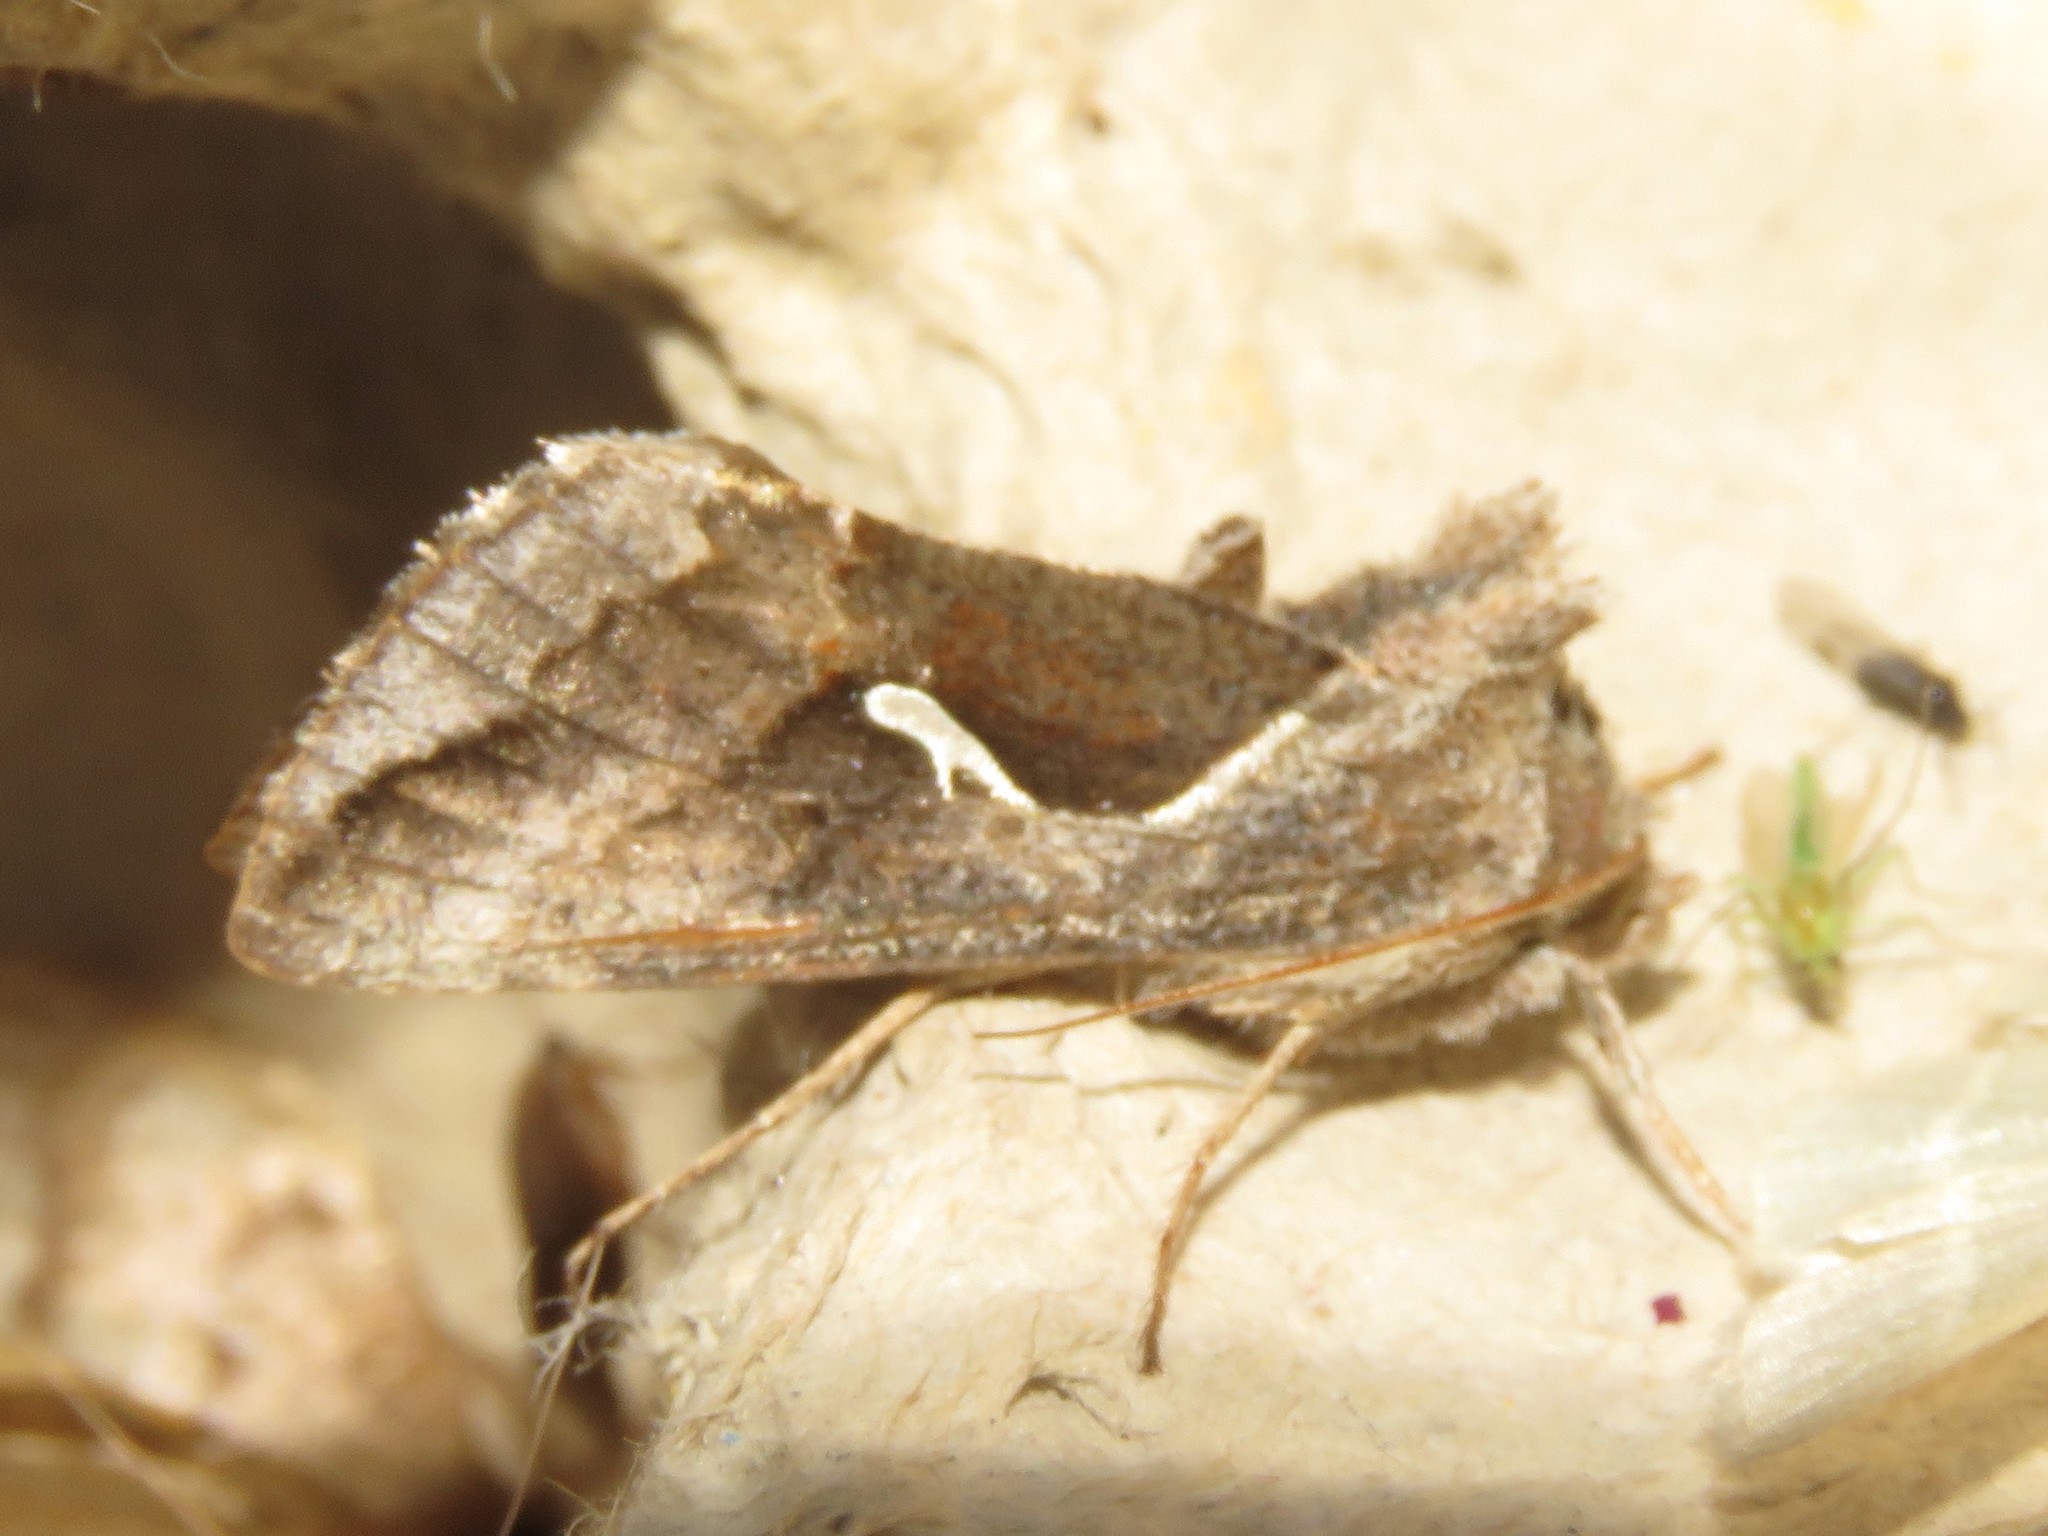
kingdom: Animalia
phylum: Arthropoda
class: Insecta
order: Lepidoptera
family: Noctuidae
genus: Anagrapha
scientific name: Anagrapha falcifera
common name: Celery looper
